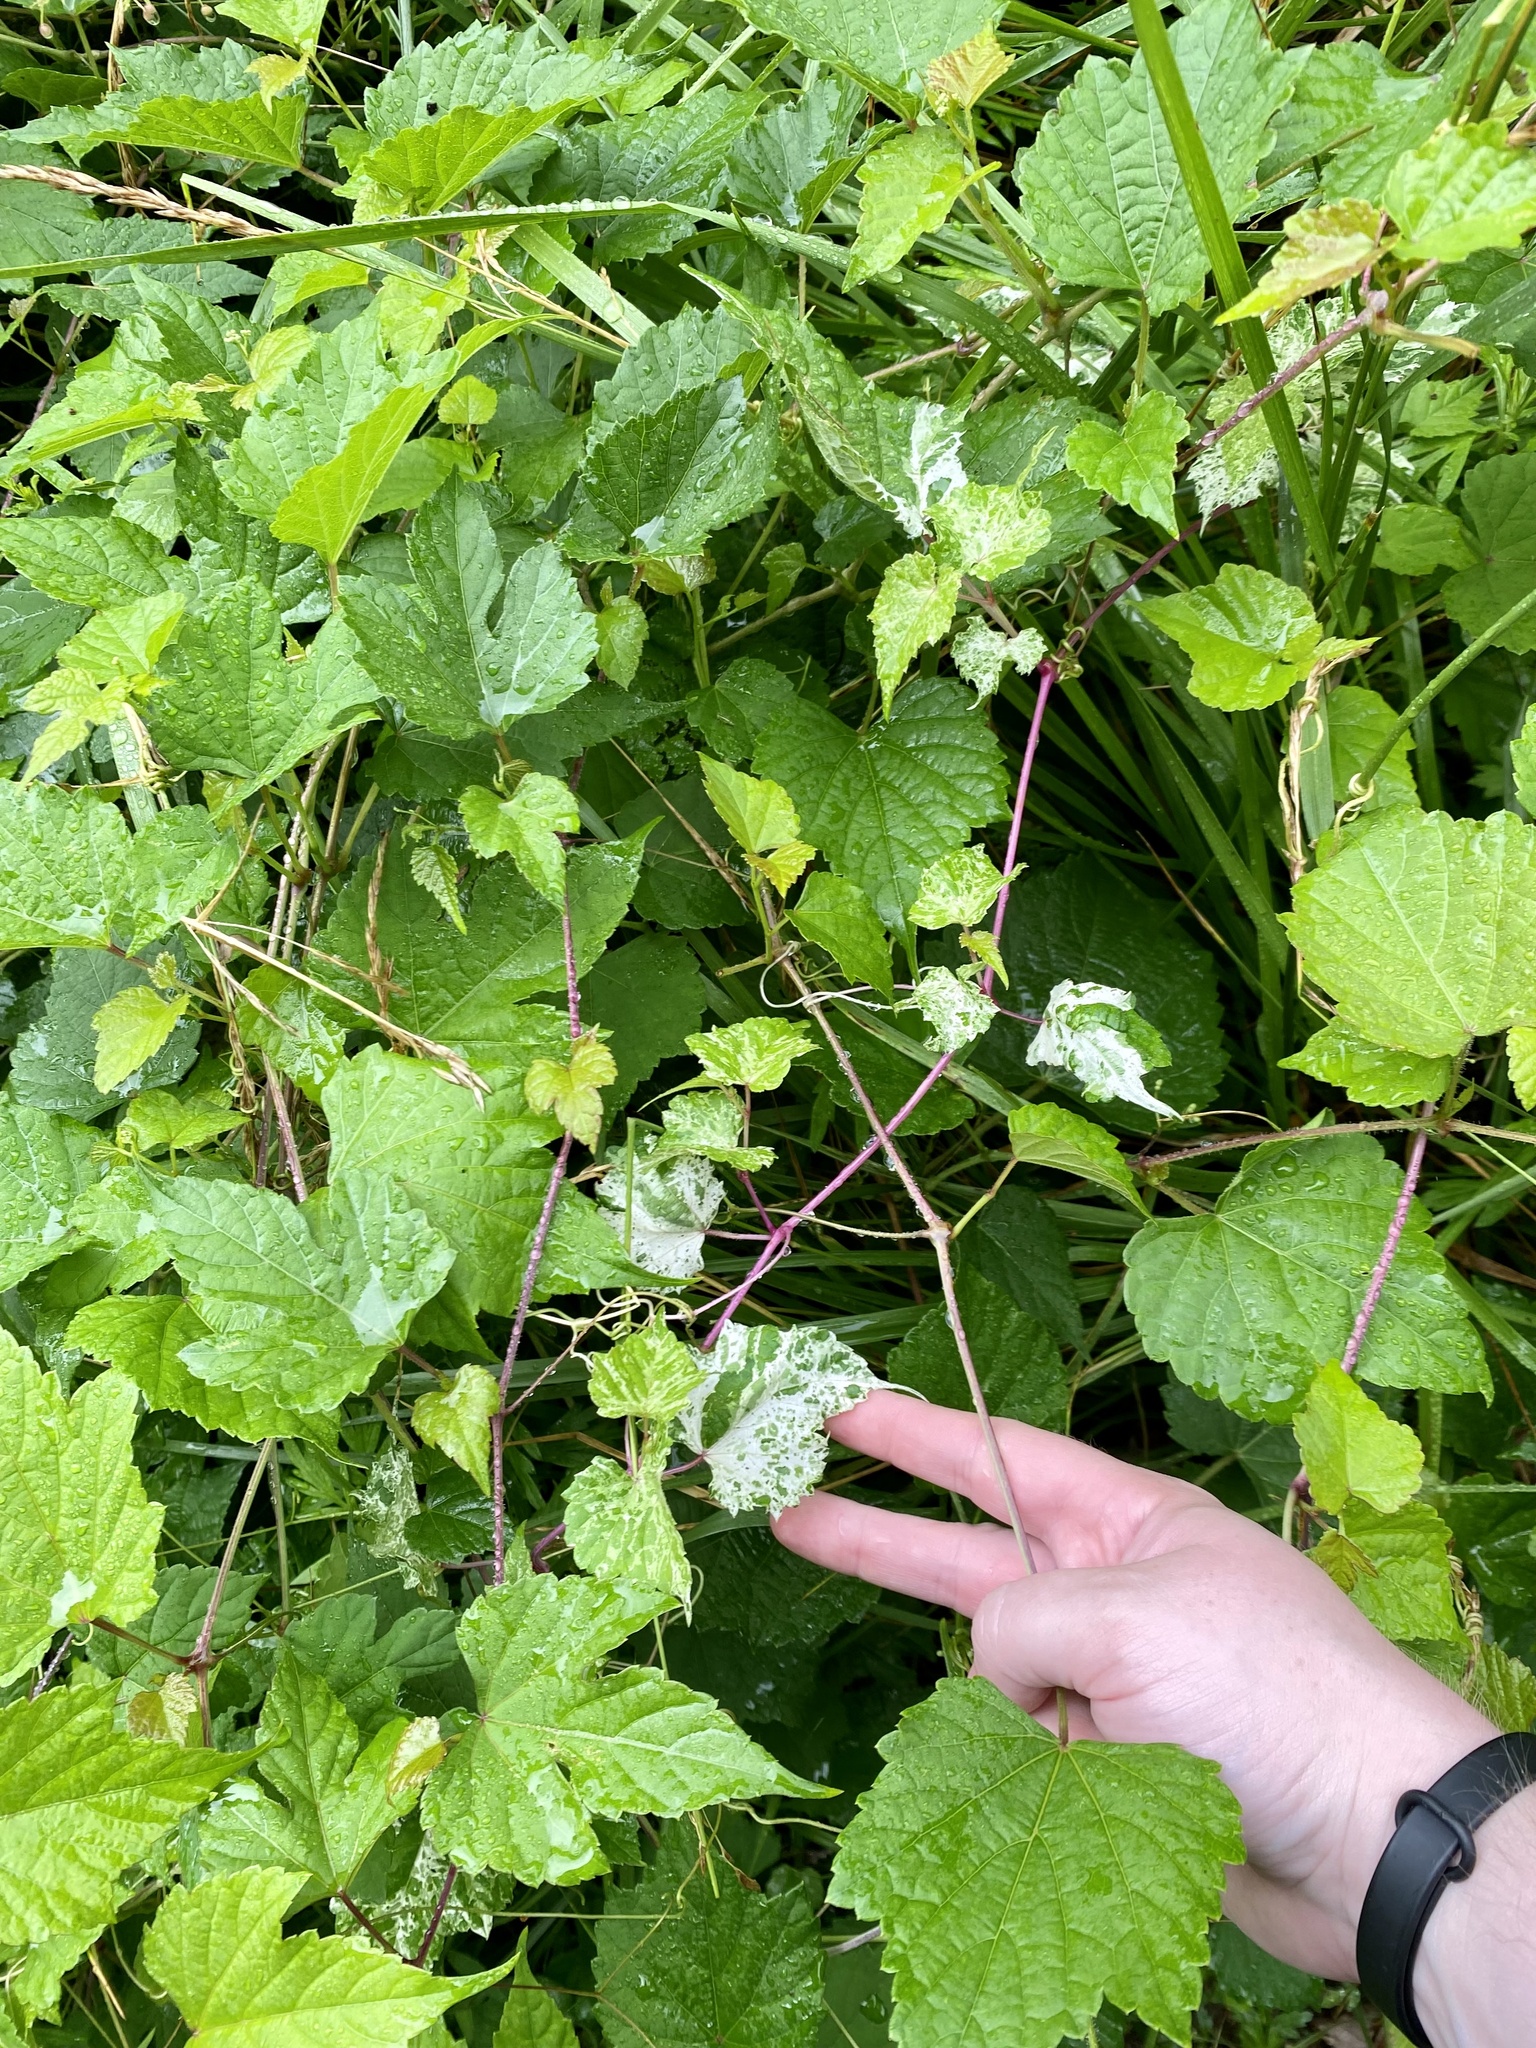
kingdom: Plantae
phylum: Tracheophyta
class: Magnoliopsida
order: Vitales
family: Vitaceae
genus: Ampelopsis
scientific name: Ampelopsis glandulosa
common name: Amur peppervine
